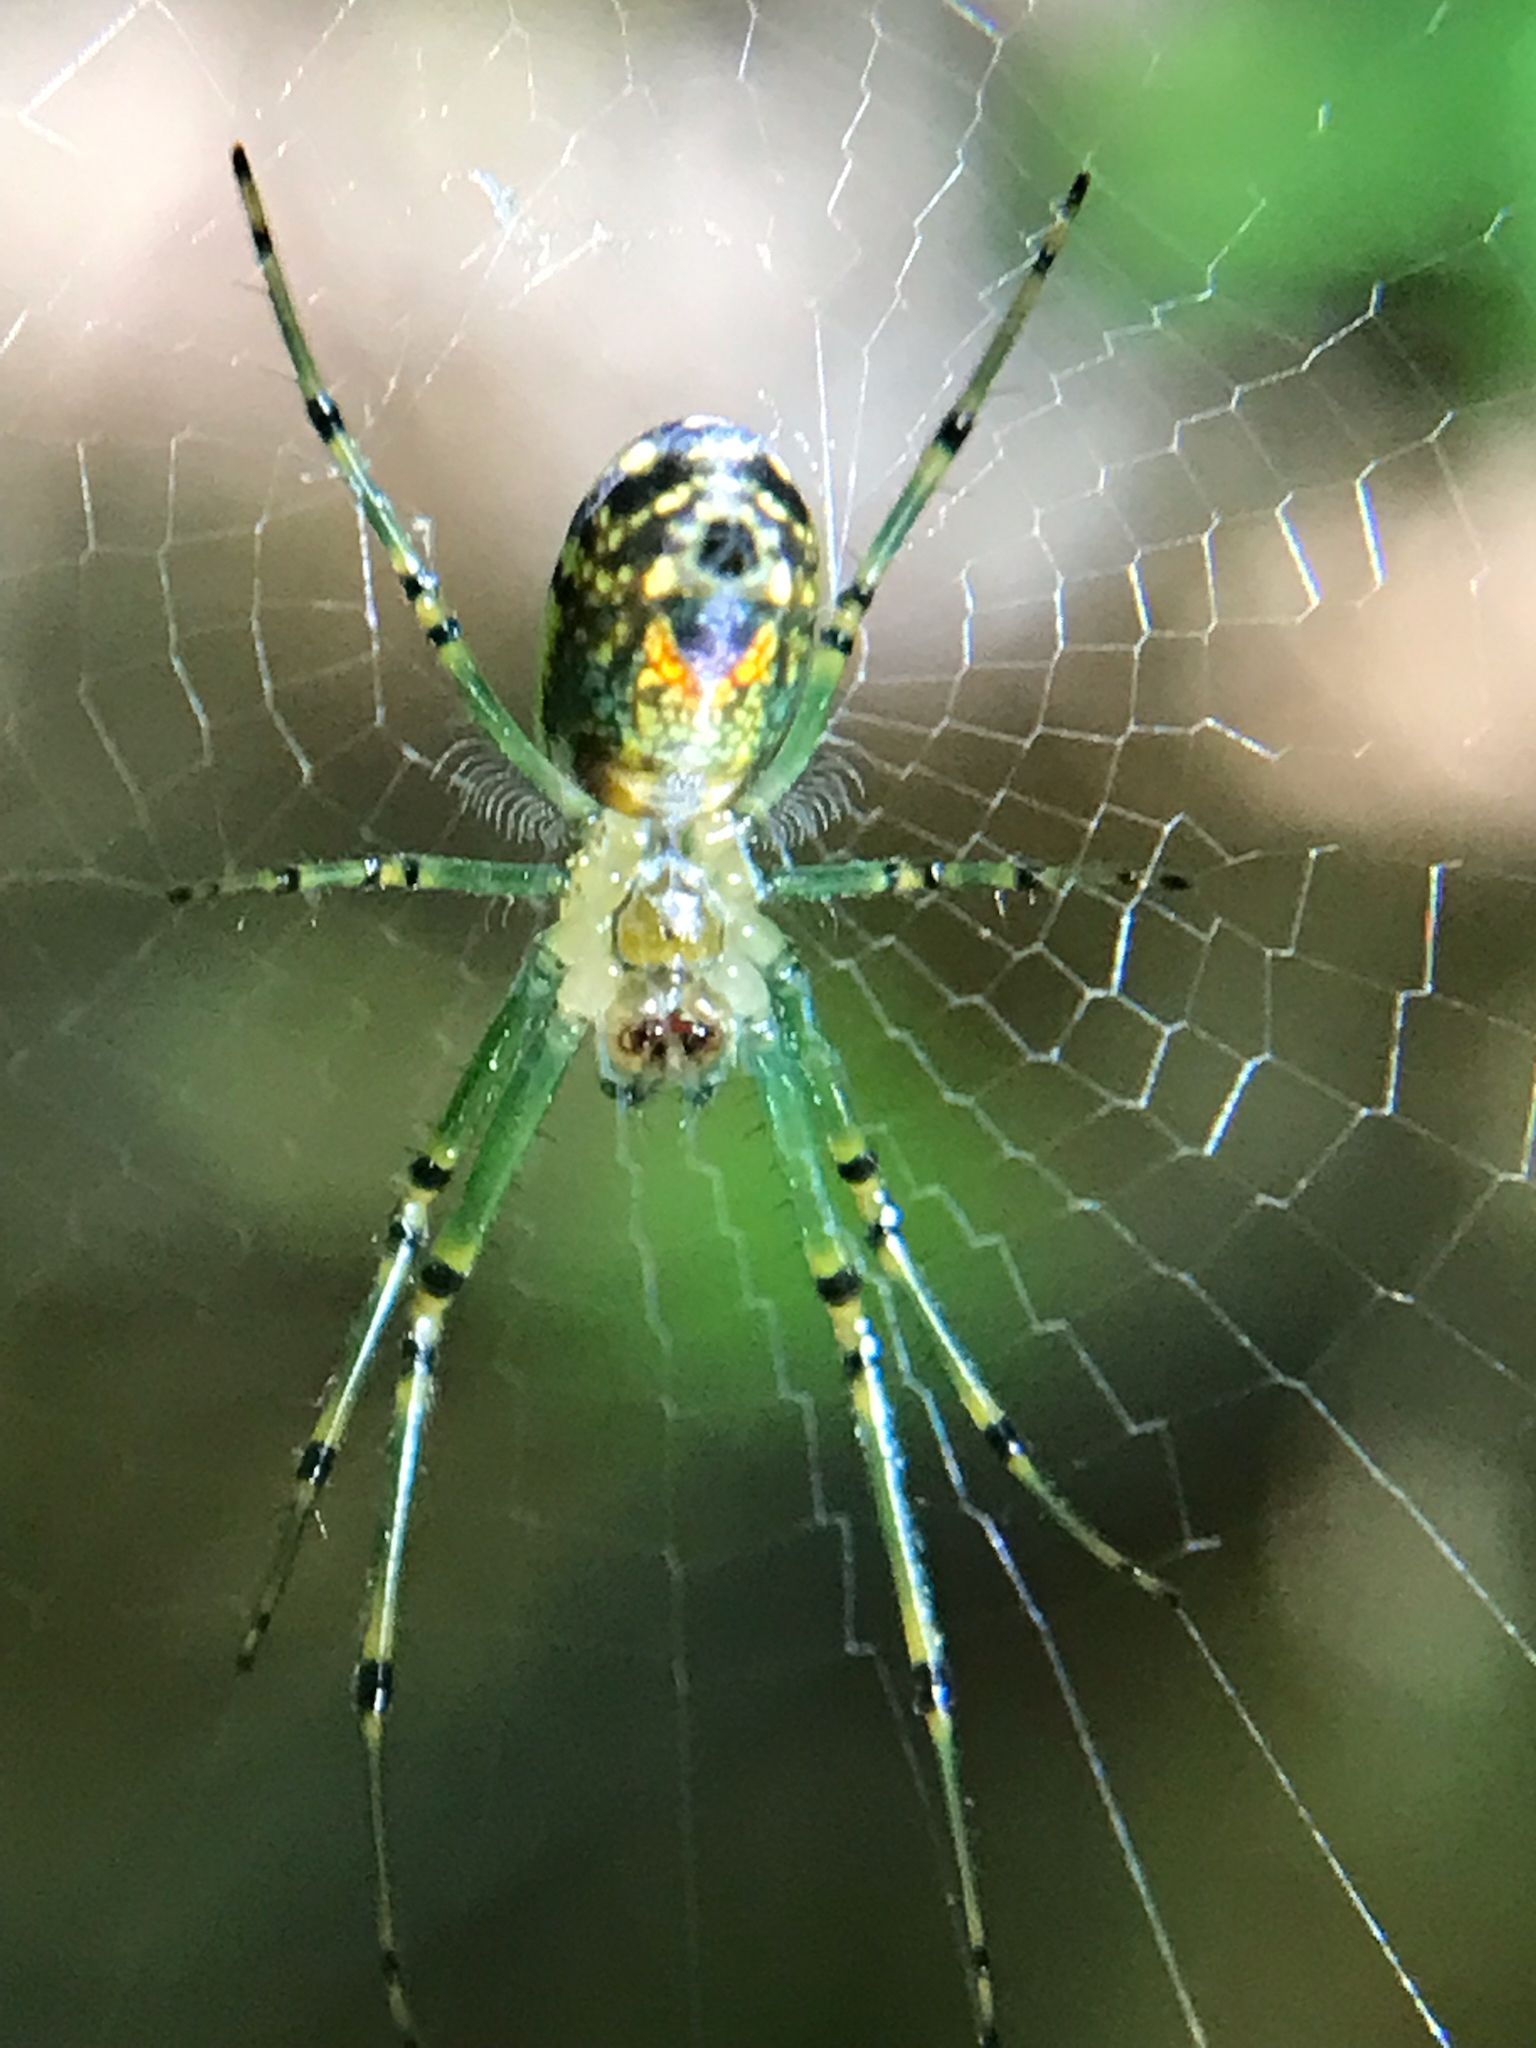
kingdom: Animalia
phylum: Arthropoda
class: Arachnida
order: Araneae
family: Tetragnathidae
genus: Leucauge
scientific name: Leucauge venusta
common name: Longjawed orb weavers
